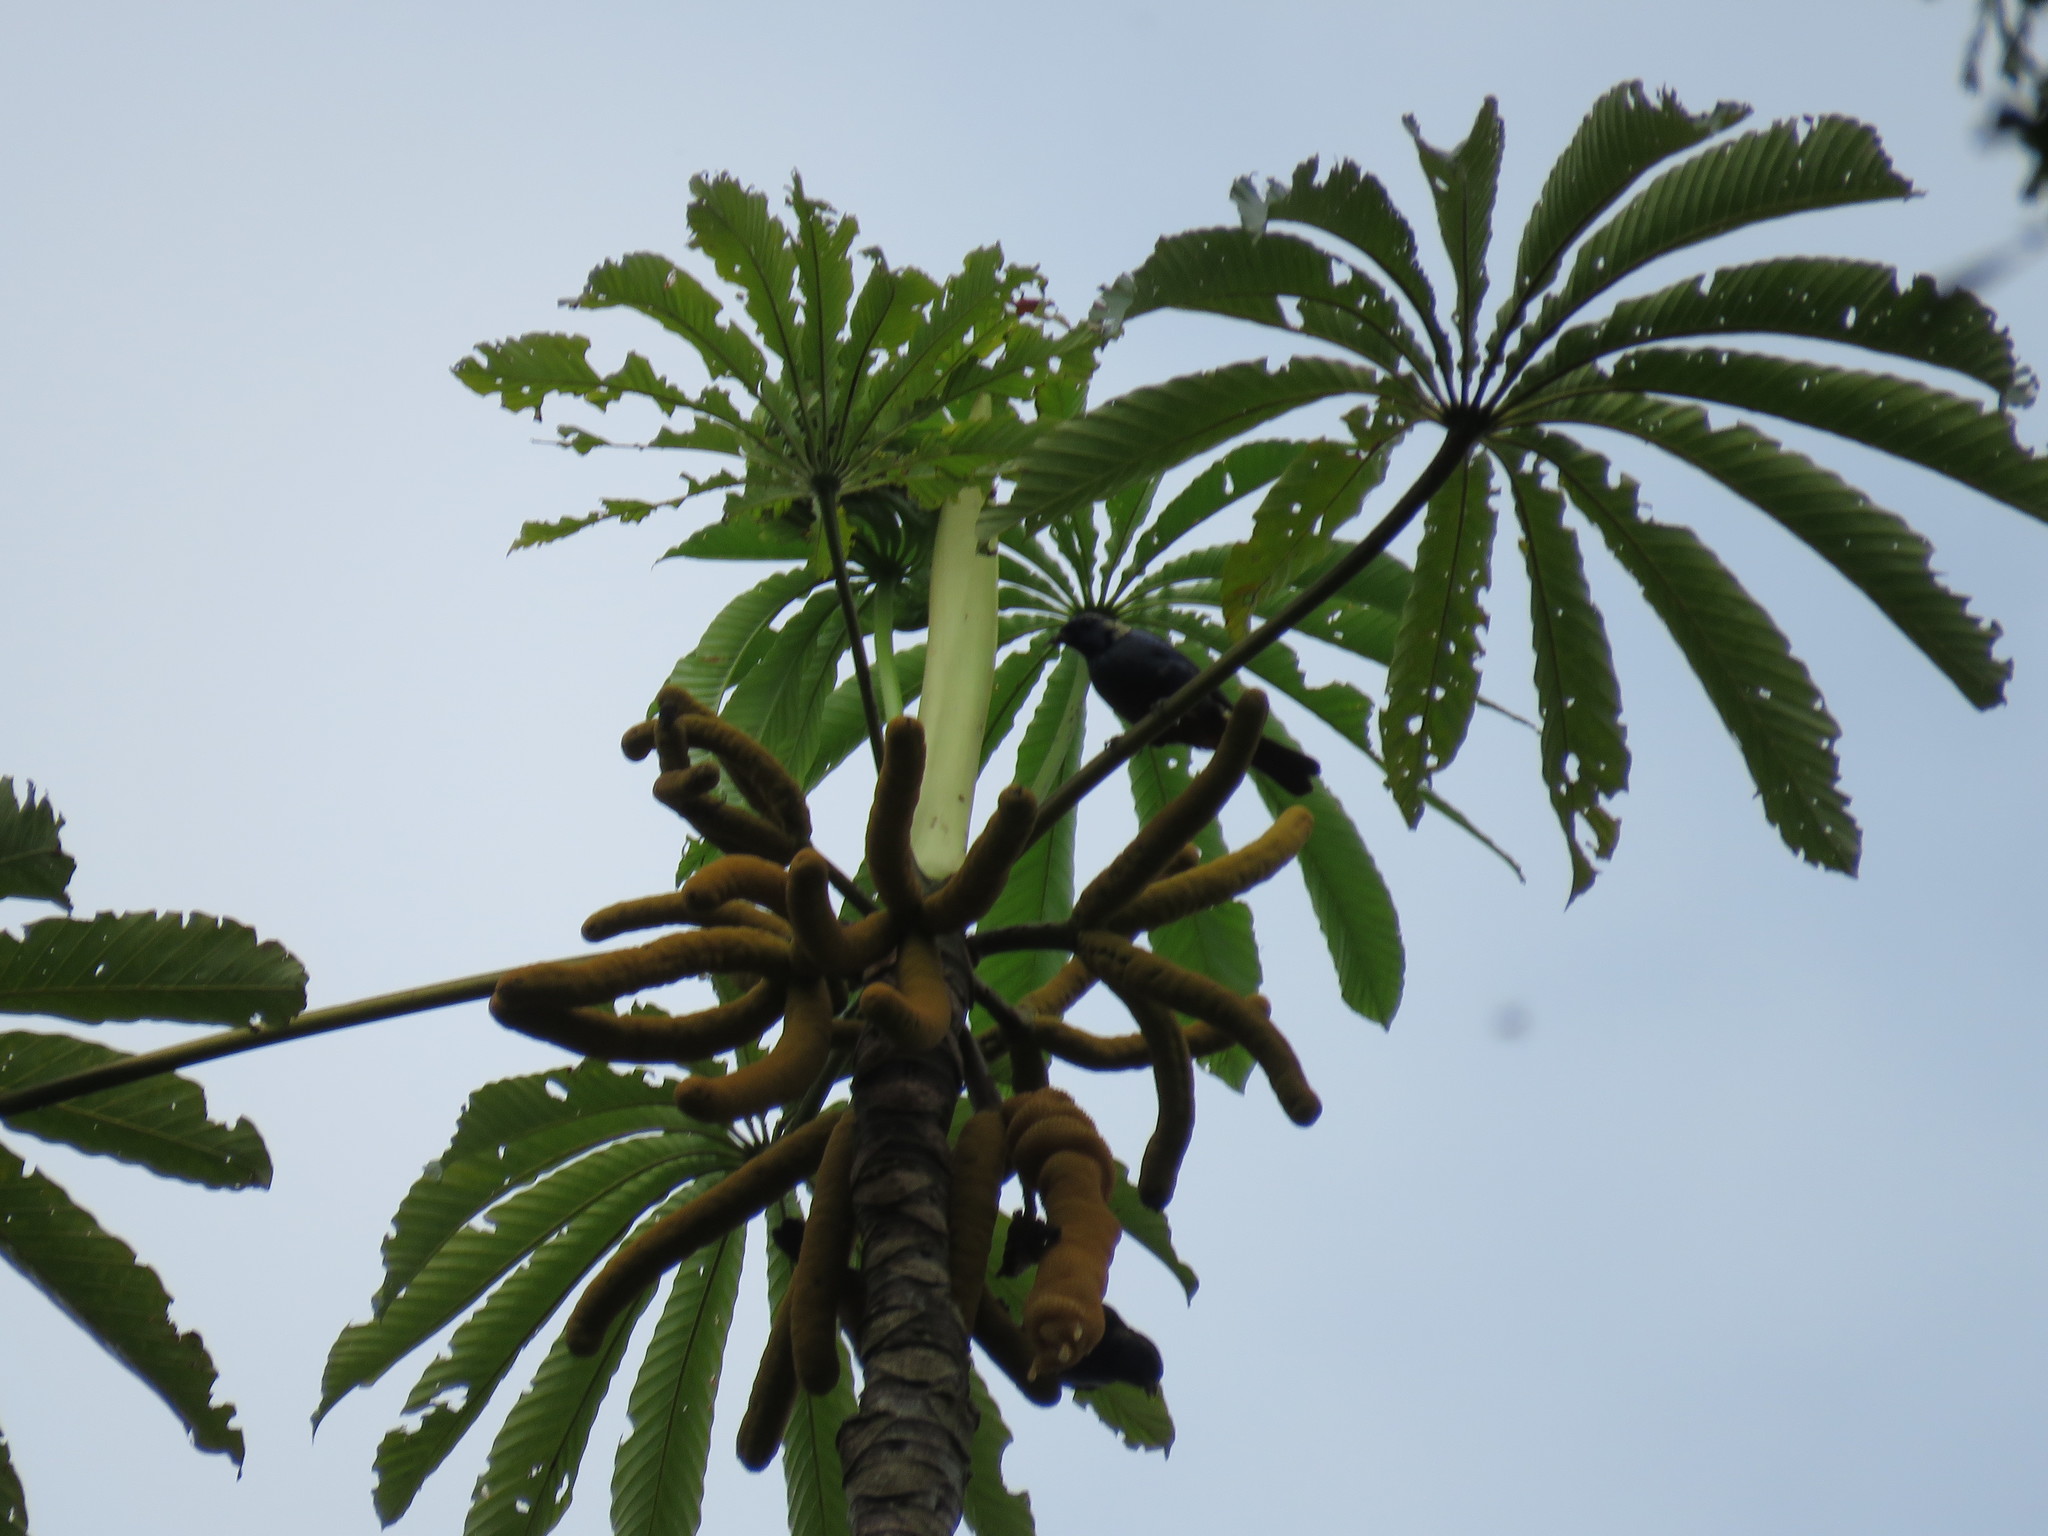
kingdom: Animalia
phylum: Chordata
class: Aves
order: Passeriformes
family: Thraupidae
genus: Tangara
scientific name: Tangara velia
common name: Opal-rumped tanager
